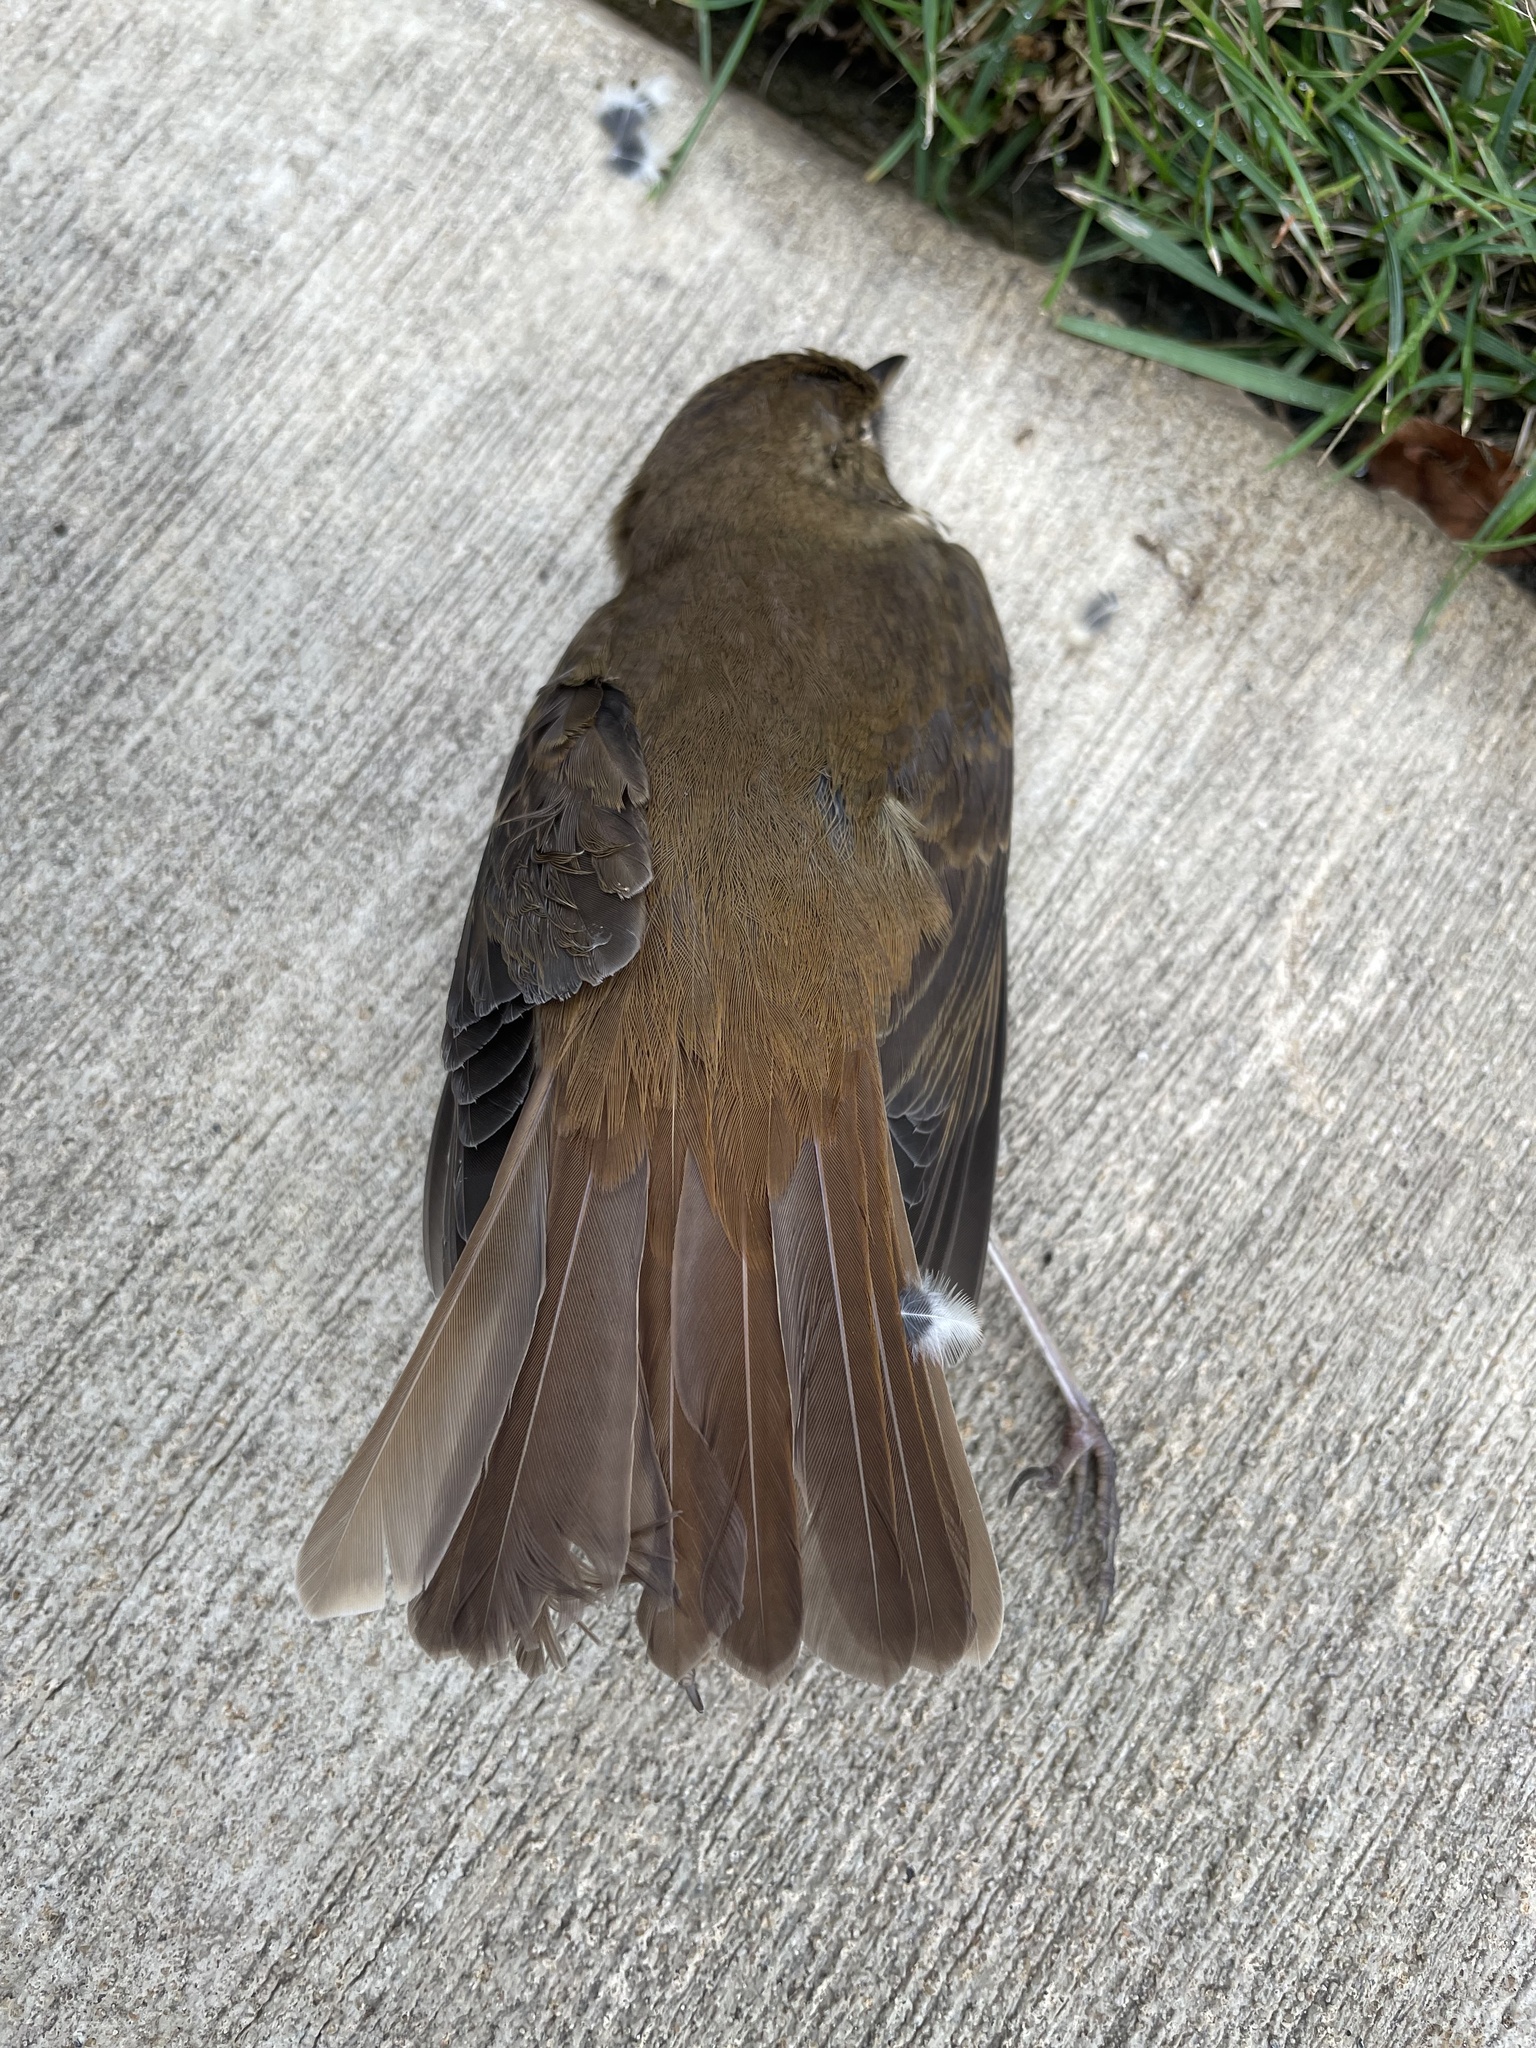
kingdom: Animalia
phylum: Chordata
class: Aves
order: Passeriformes
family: Turdidae
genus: Catharus
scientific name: Catharus guttatus
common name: Hermit thrush
